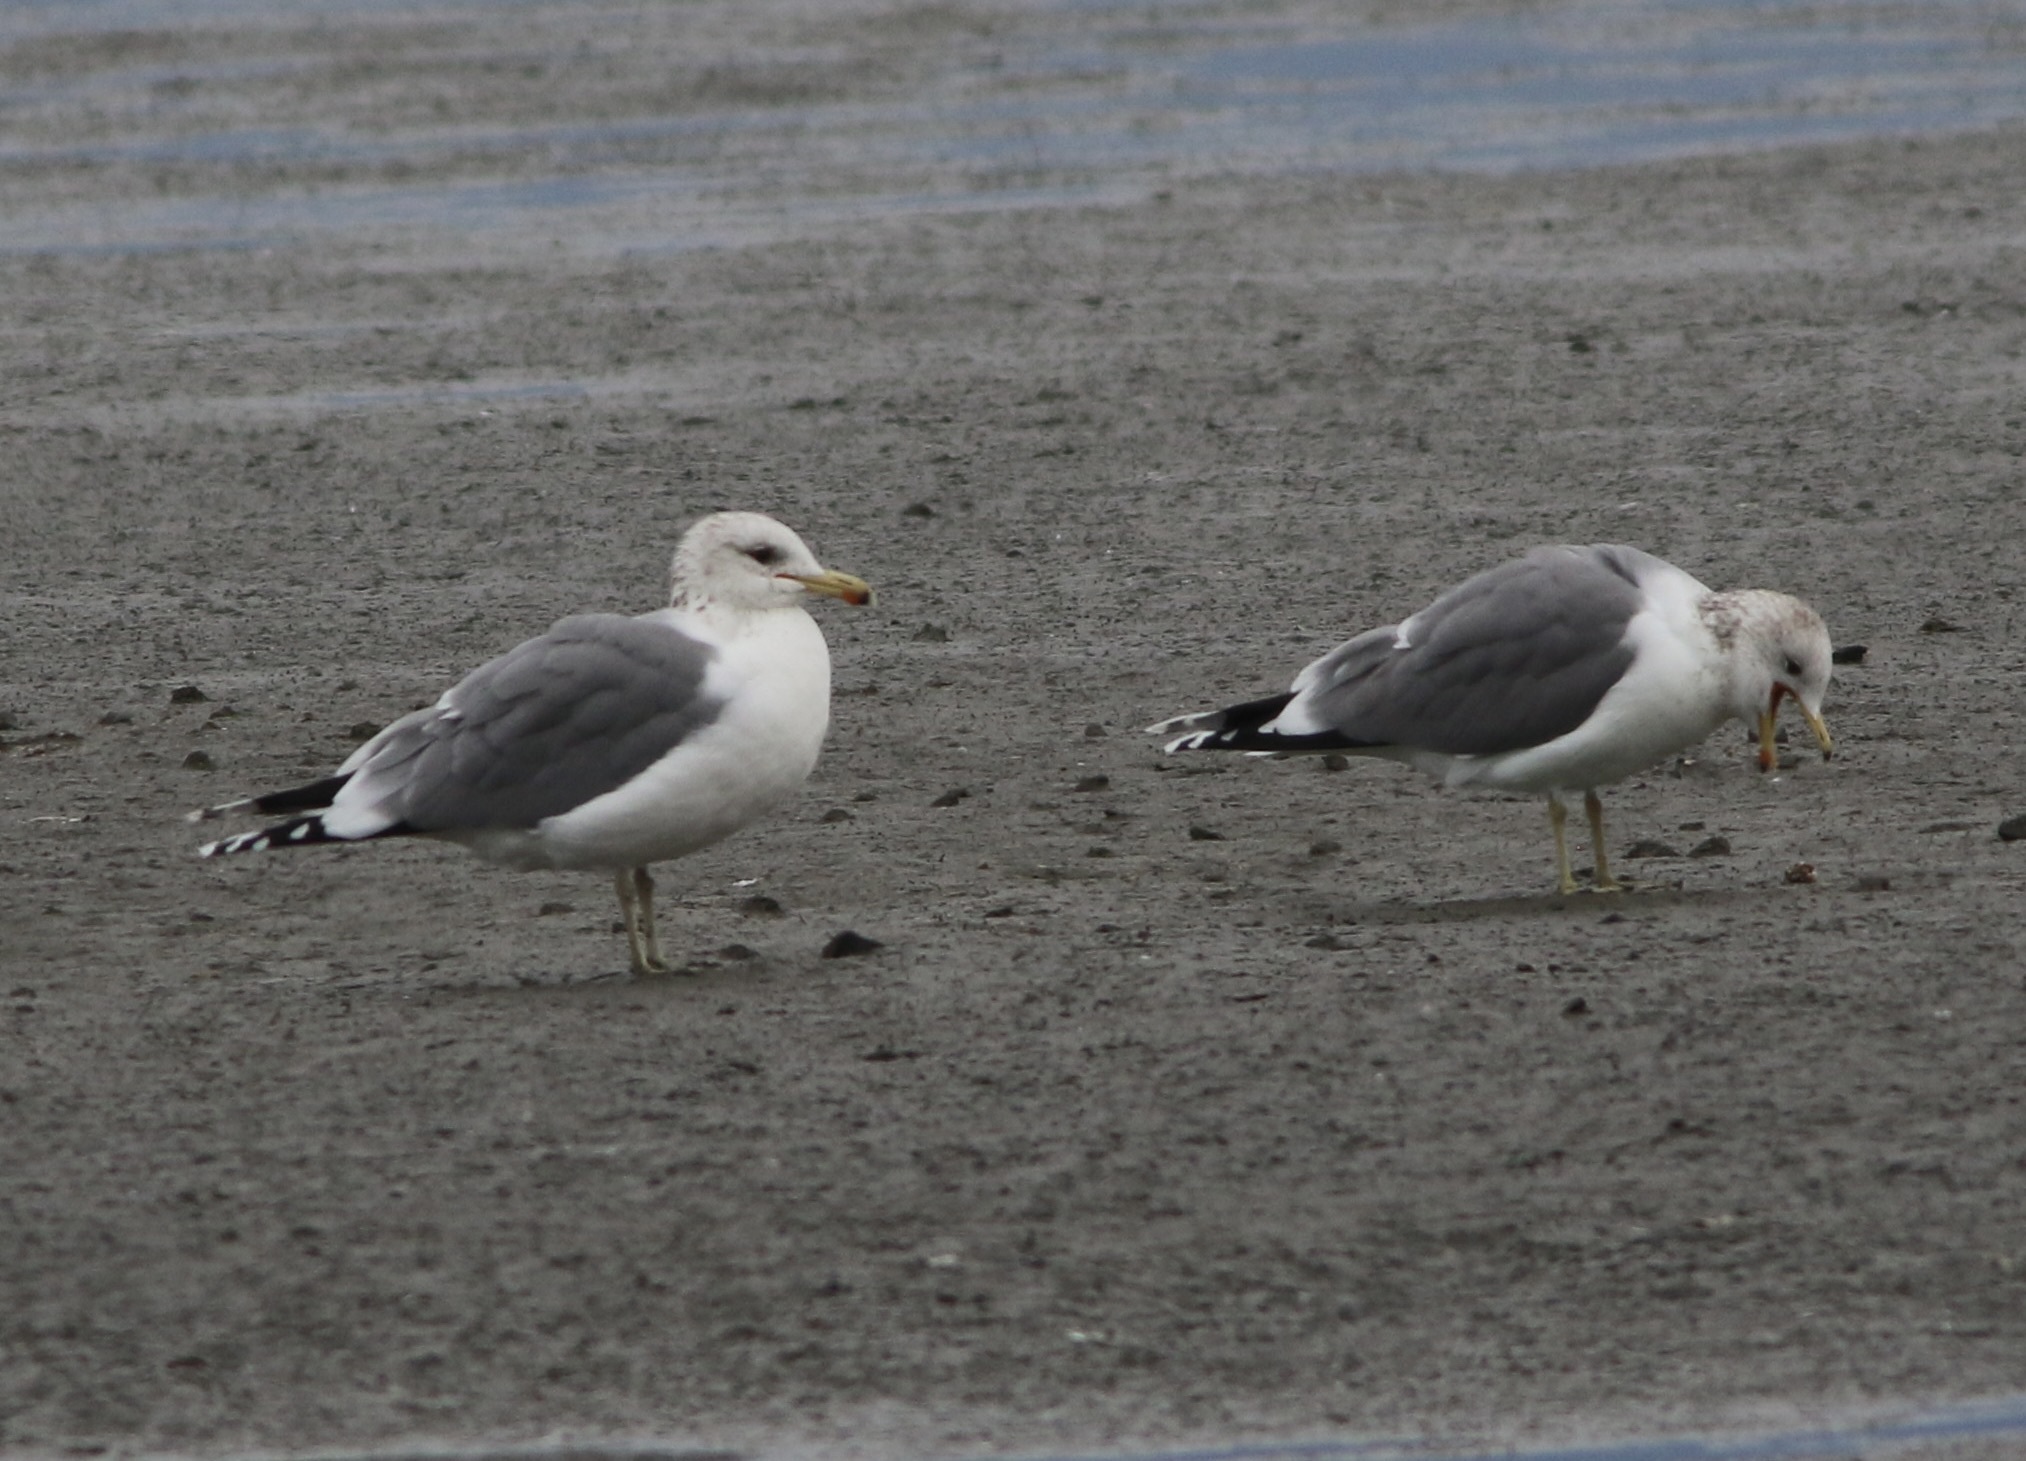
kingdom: Animalia
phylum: Chordata
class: Aves
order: Charadriiformes
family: Laridae
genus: Larus
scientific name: Larus californicus
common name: California gull
